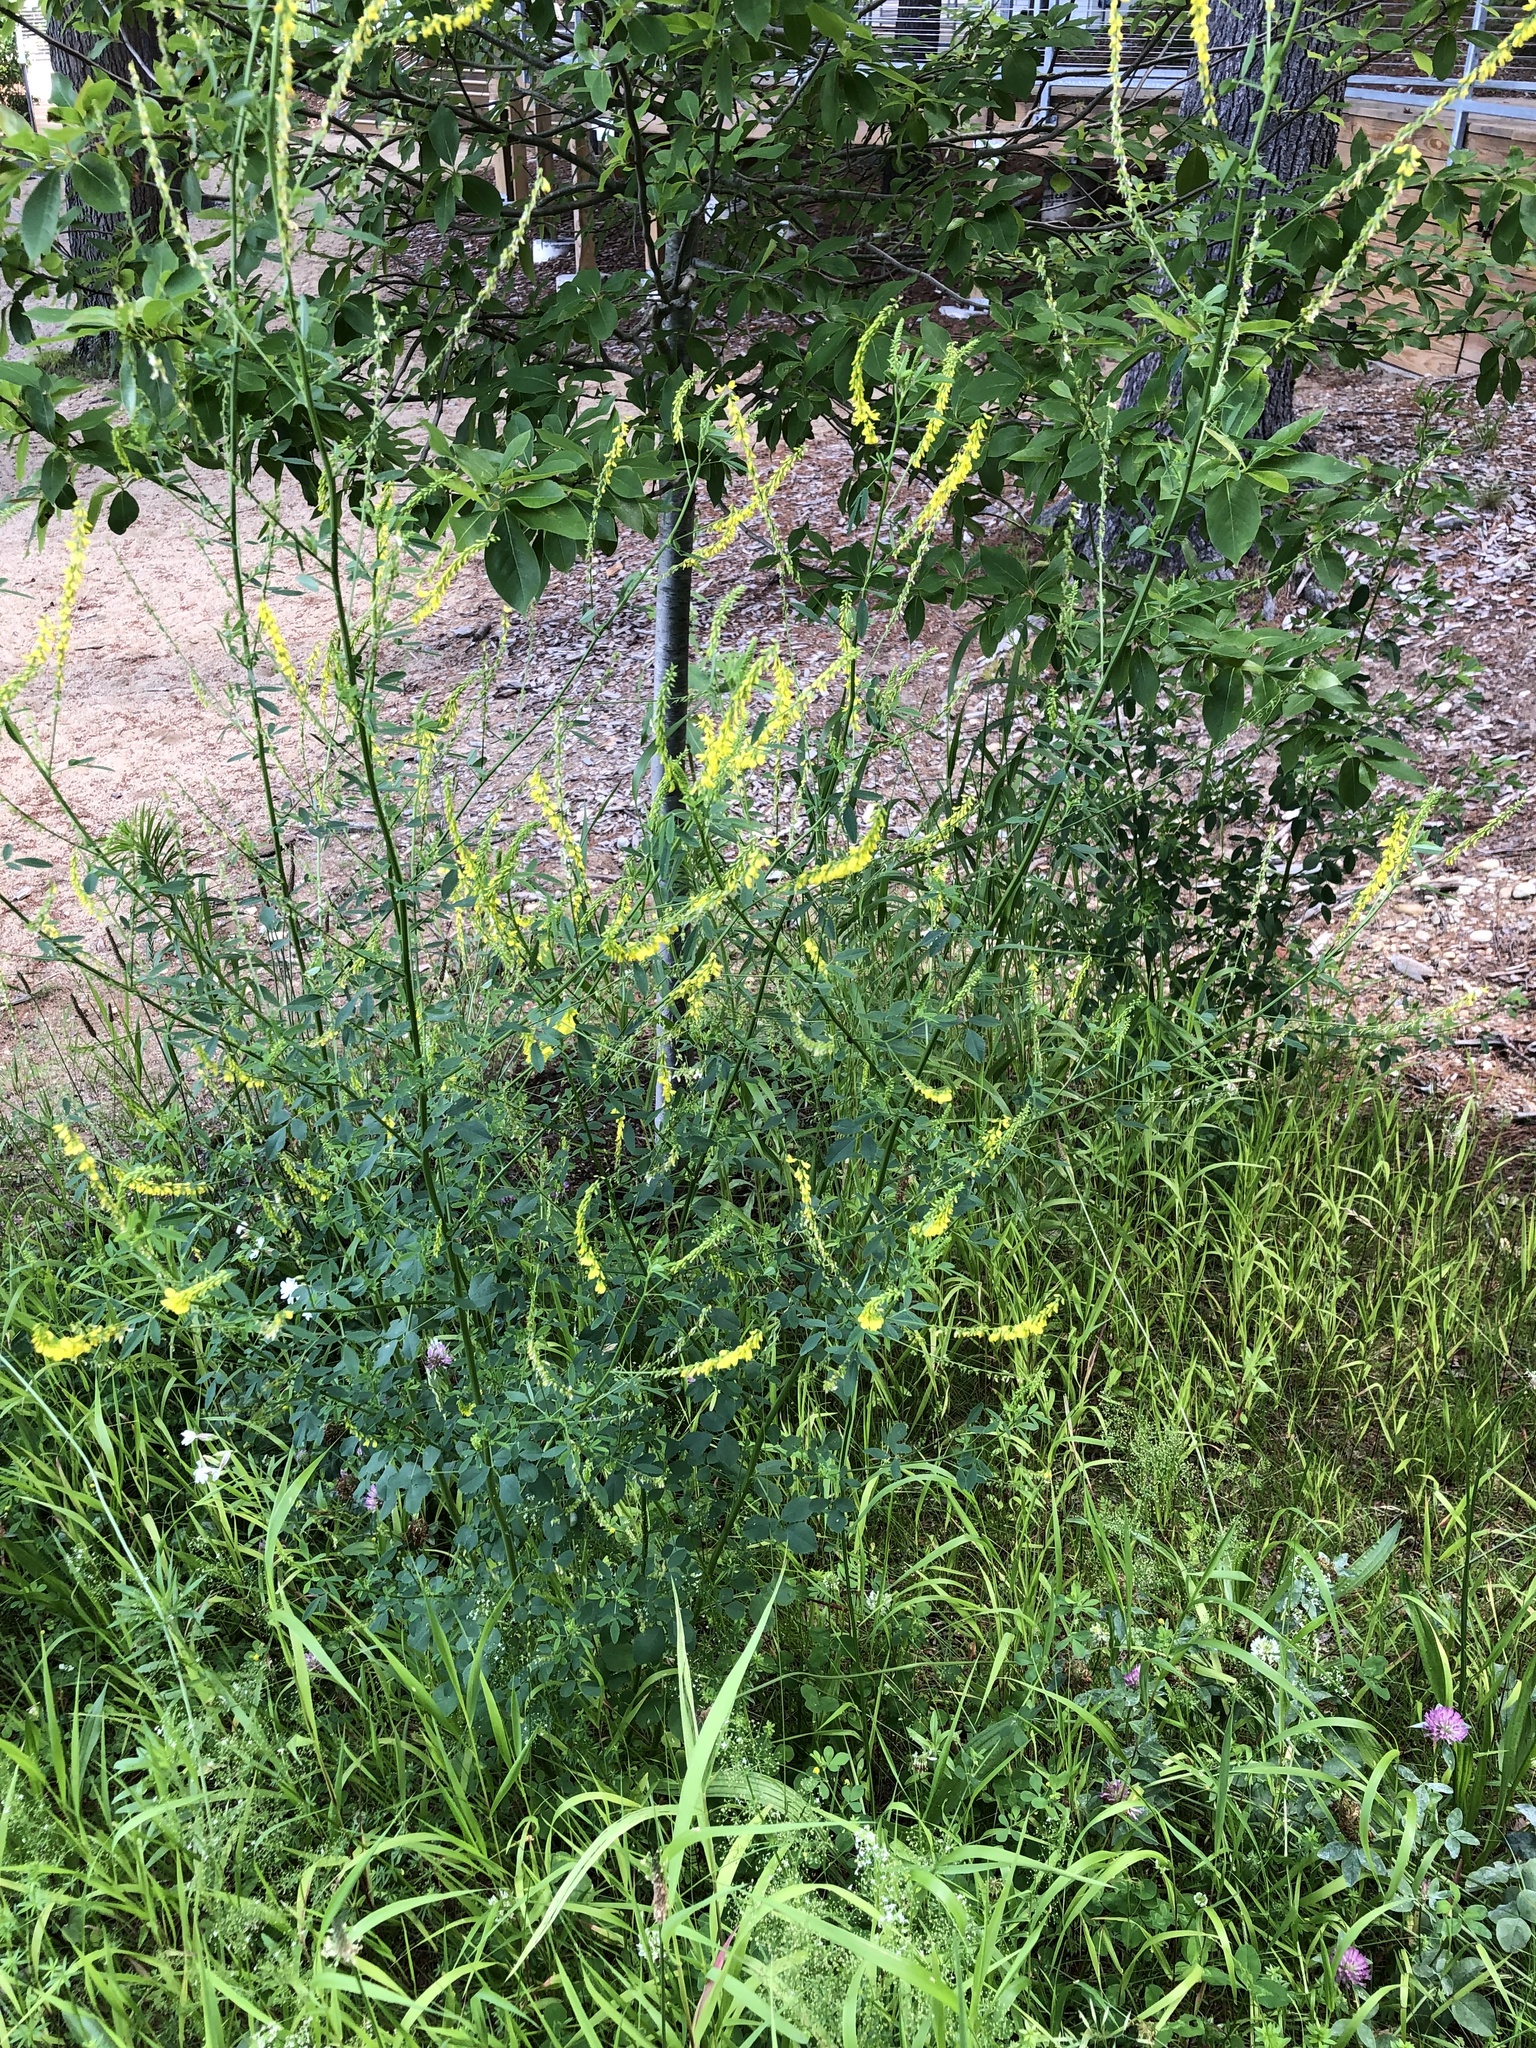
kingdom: Plantae
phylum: Tracheophyta
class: Magnoliopsida
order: Fabales
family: Fabaceae
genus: Melilotus
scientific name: Melilotus officinalis
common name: Sweetclover
